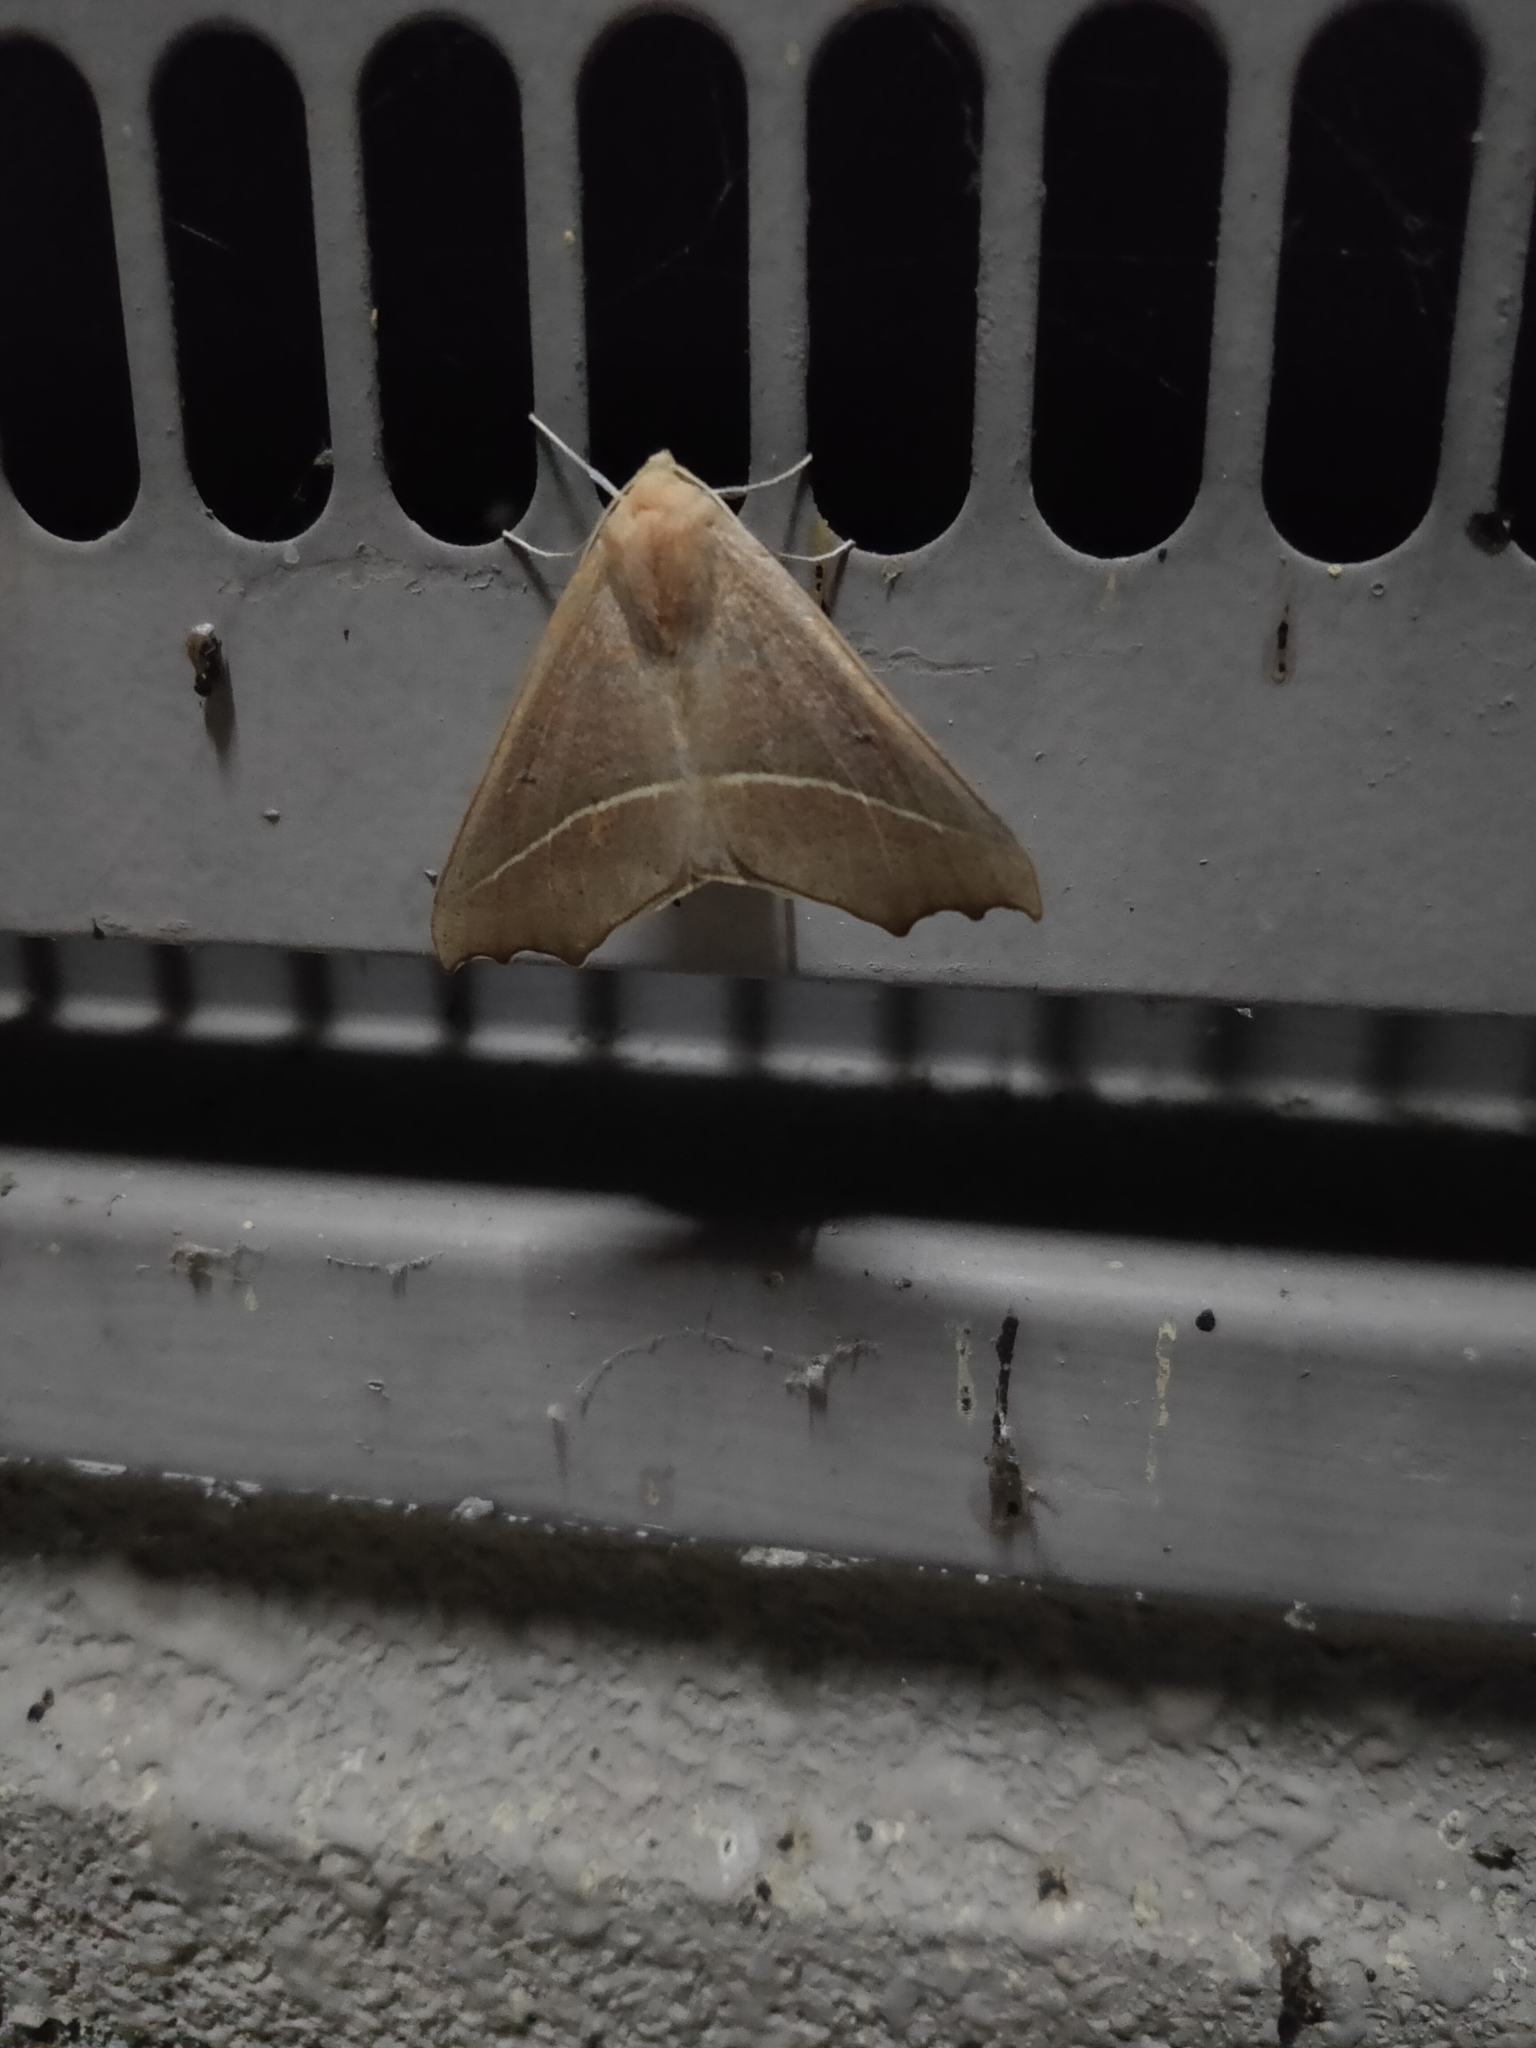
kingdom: Animalia
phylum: Arthropoda
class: Insecta
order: Lepidoptera
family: Geometridae
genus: Odontopera
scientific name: Odontopera arida
